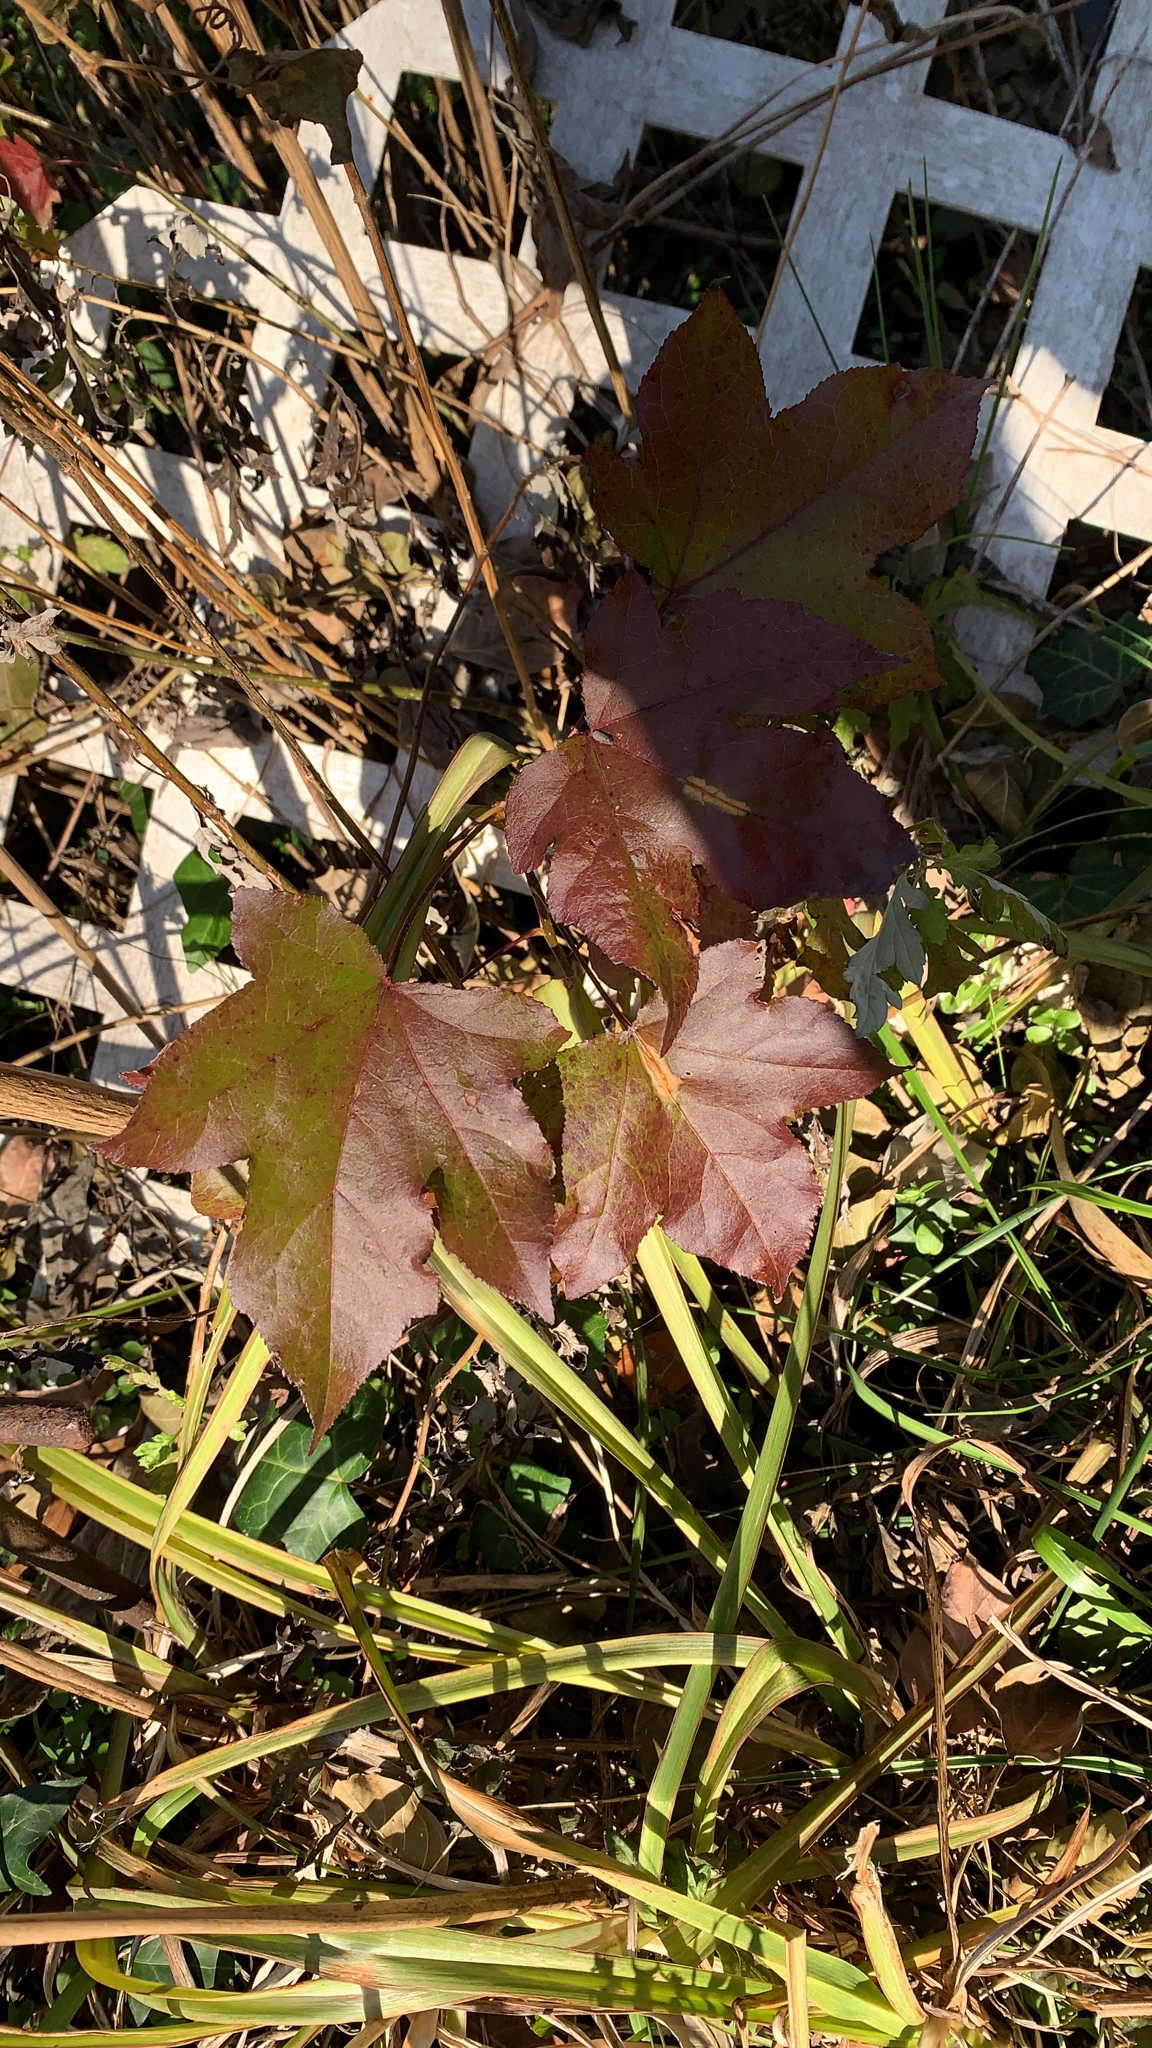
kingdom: Plantae
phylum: Tracheophyta
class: Magnoliopsida
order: Saxifragales
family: Altingiaceae
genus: Liquidambar
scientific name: Liquidambar styraciflua
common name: Sweet gum
